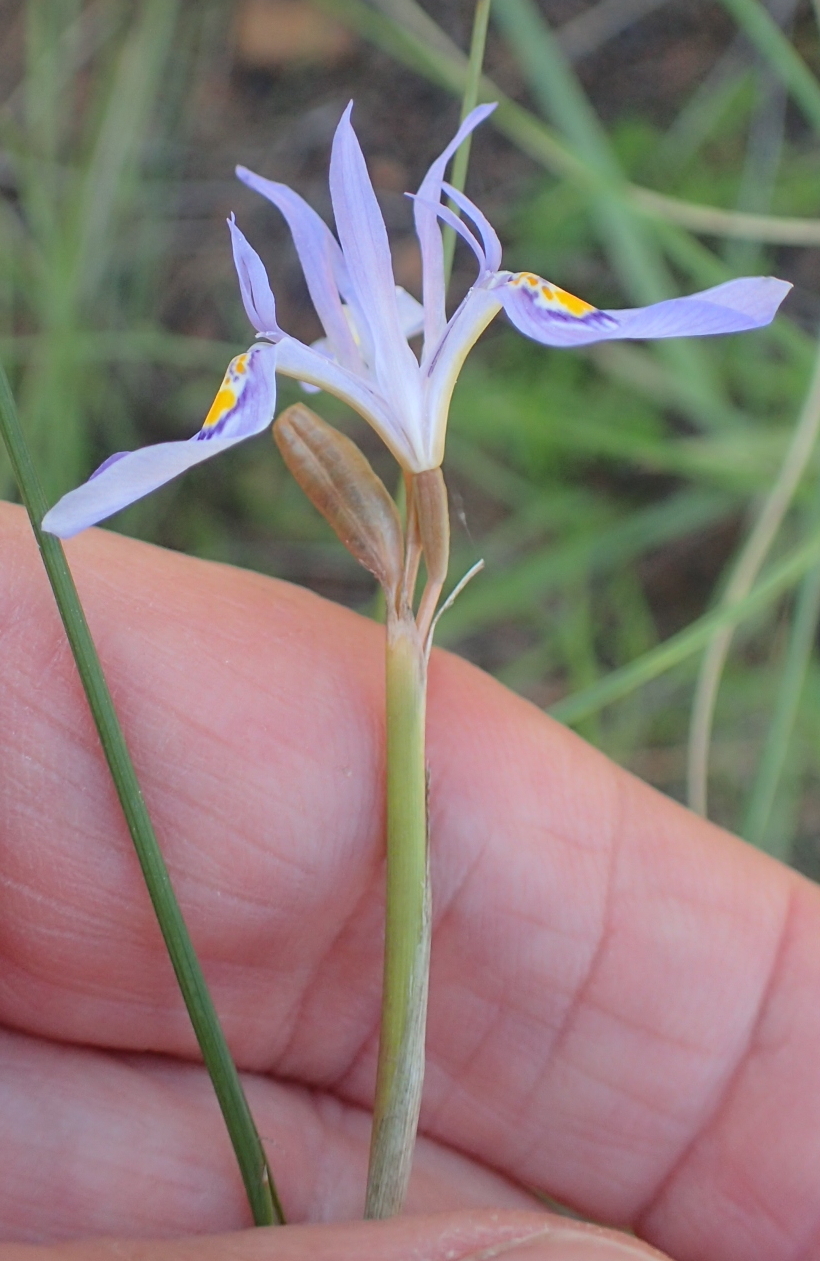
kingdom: Plantae
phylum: Tracheophyta
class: Liliopsida
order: Asparagales
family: Iridaceae
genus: Moraea
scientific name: Moraea elliotii
